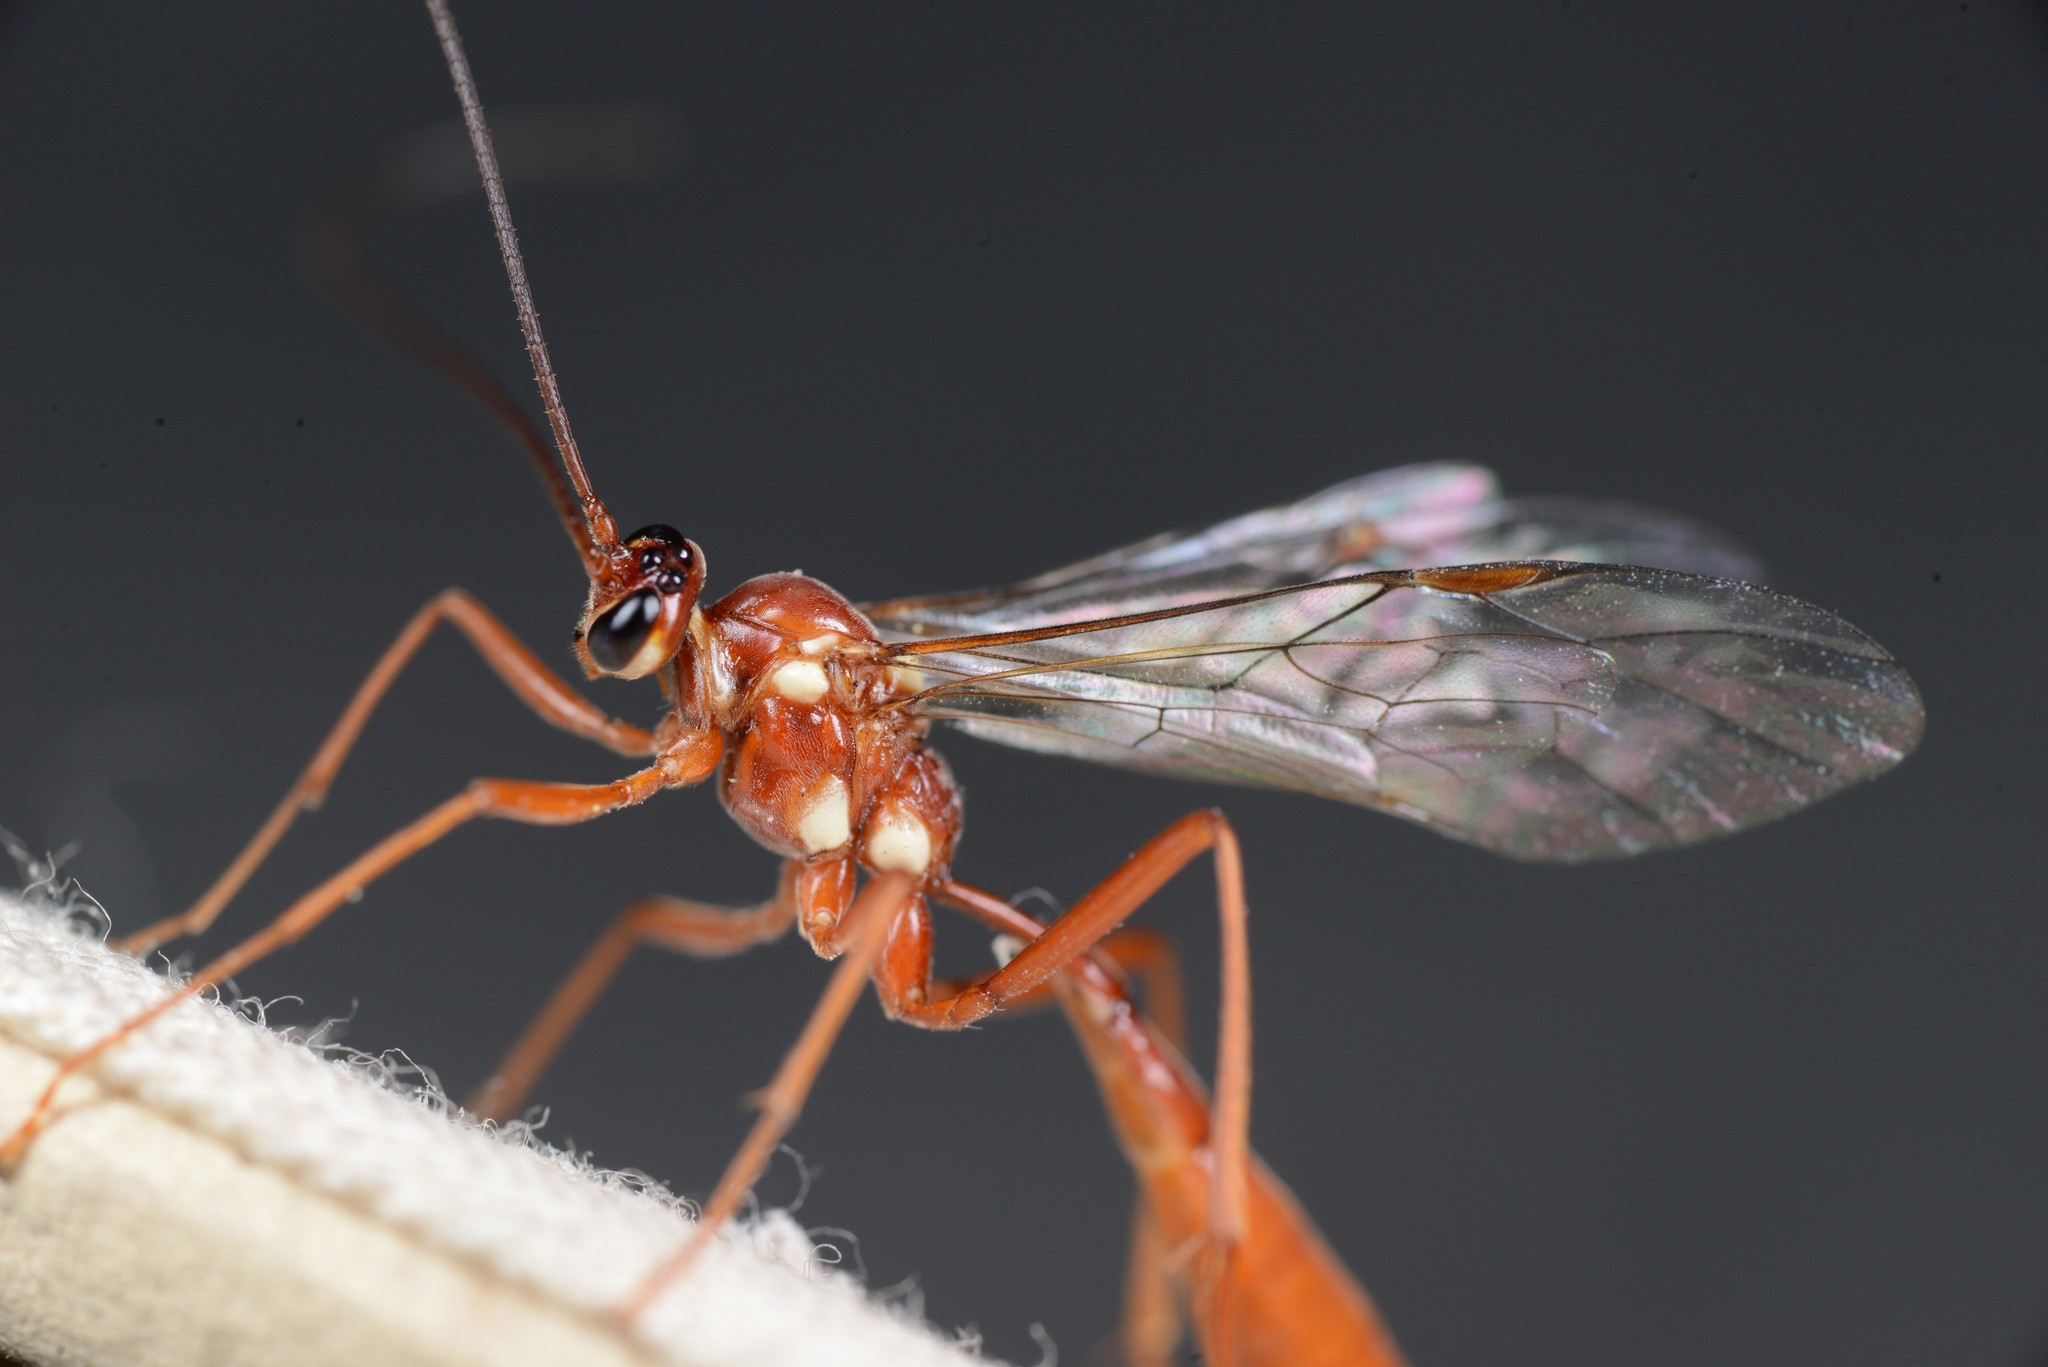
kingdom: Animalia
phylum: Arthropoda
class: Insecta
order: Hymenoptera
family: Ichneumonidae
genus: Ophion
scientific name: Ophion peregrinus
